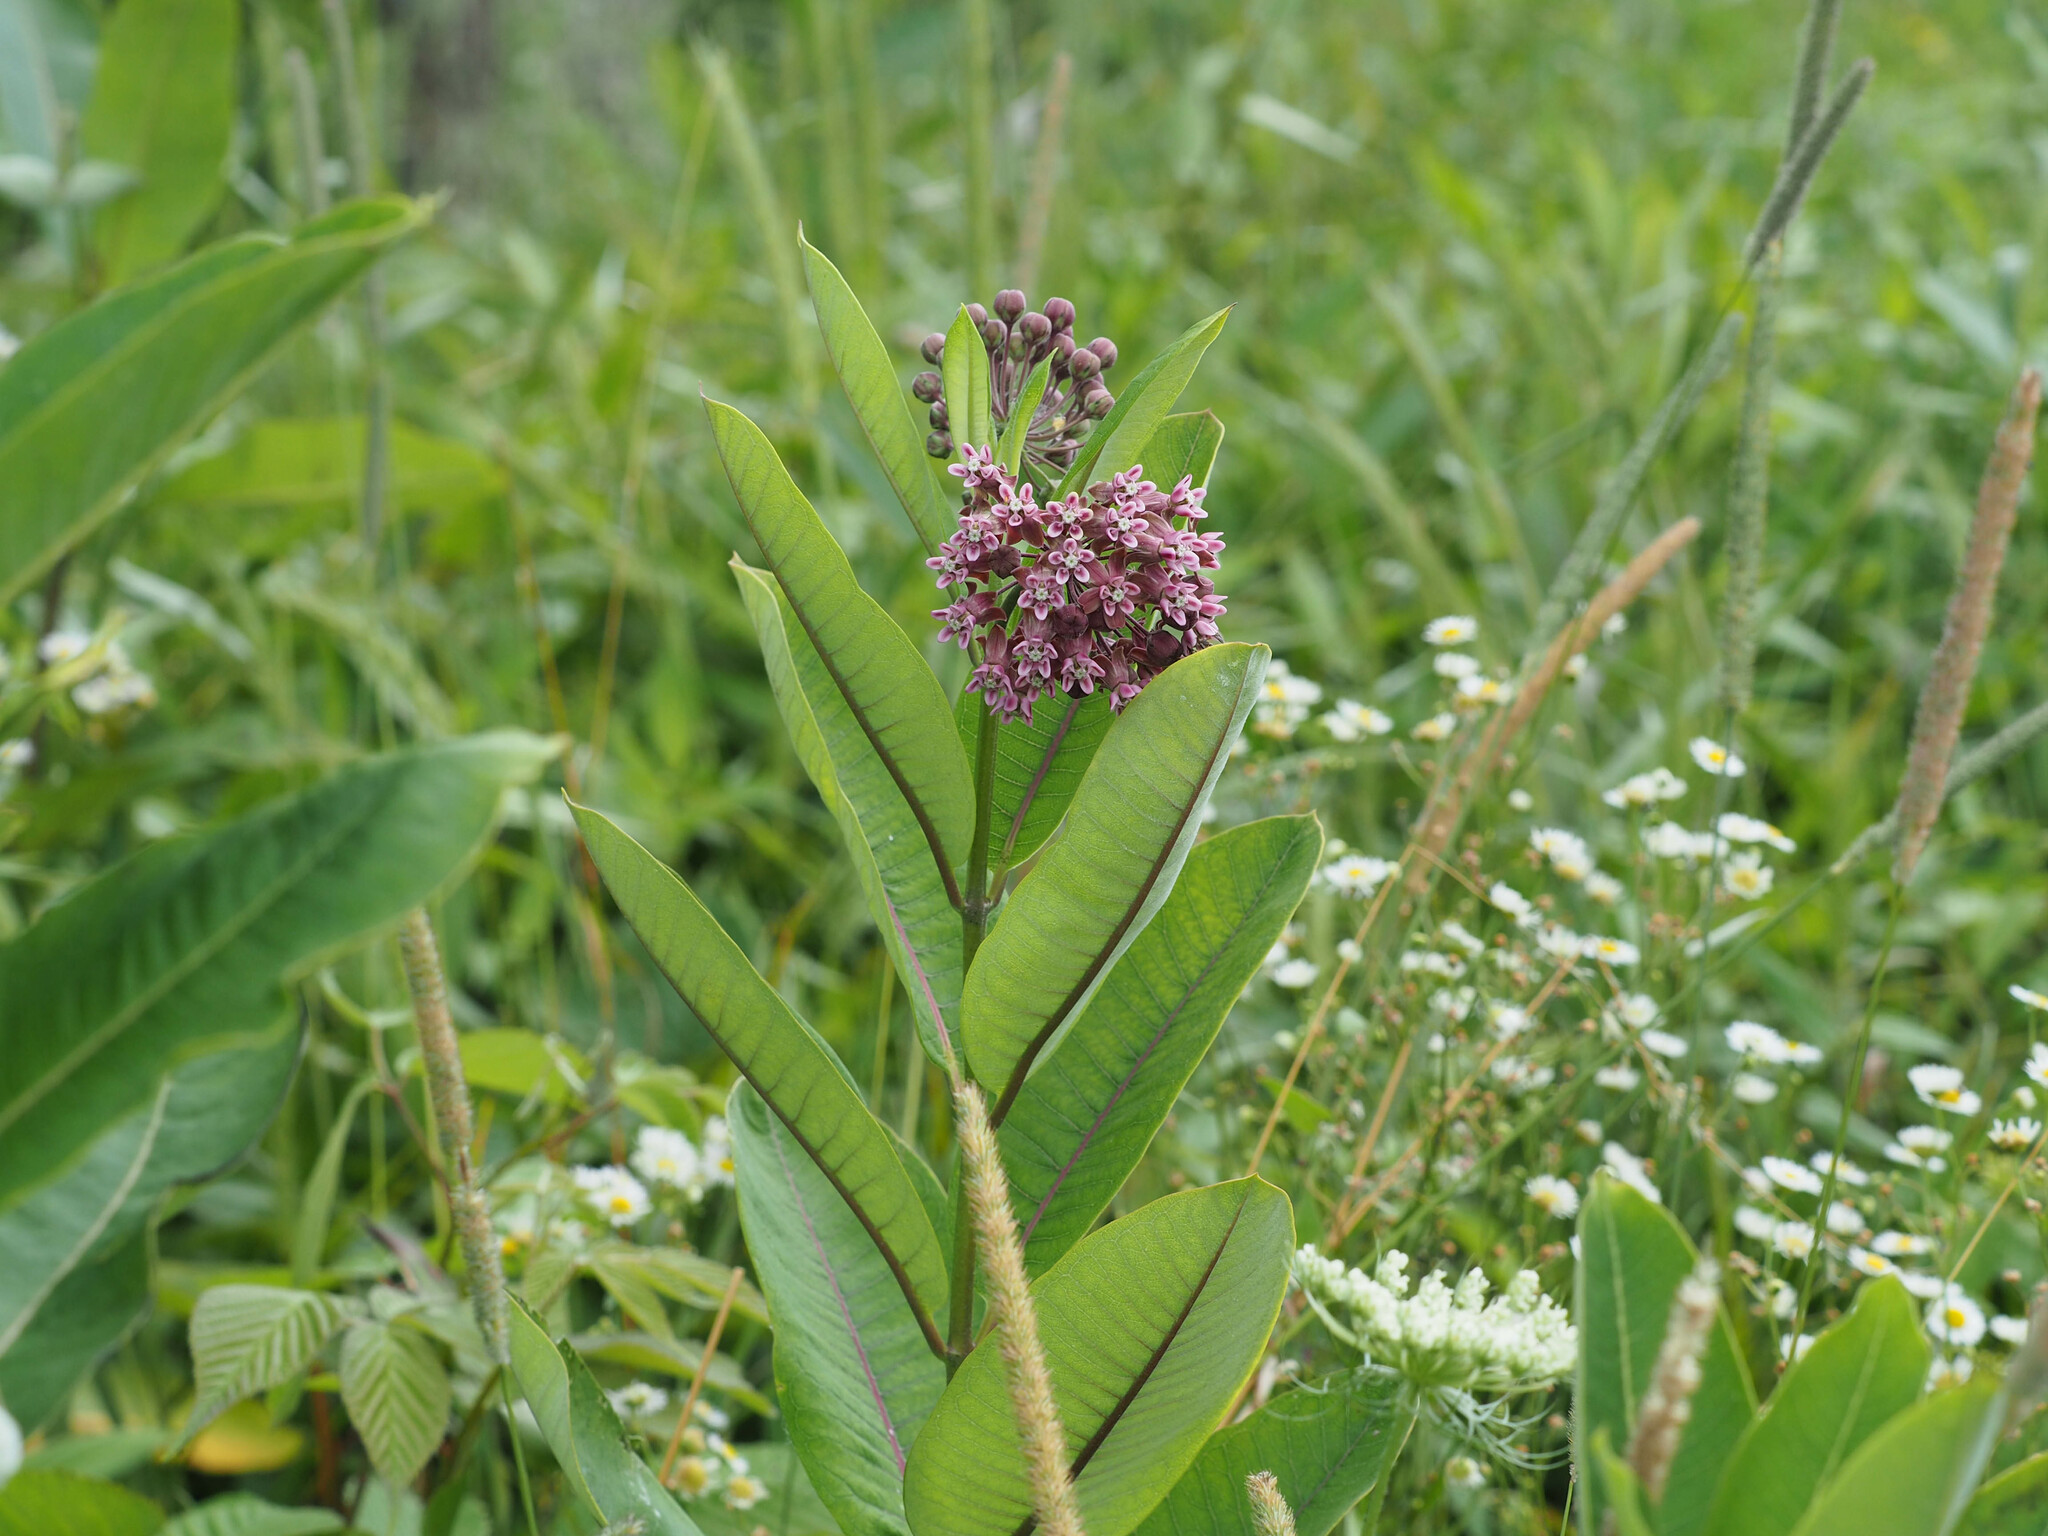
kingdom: Plantae
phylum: Tracheophyta
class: Magnoliopsida
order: Gentianales
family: Apocynaceae
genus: Asclepias
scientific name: Asclepias syriaca
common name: Common milkweed
